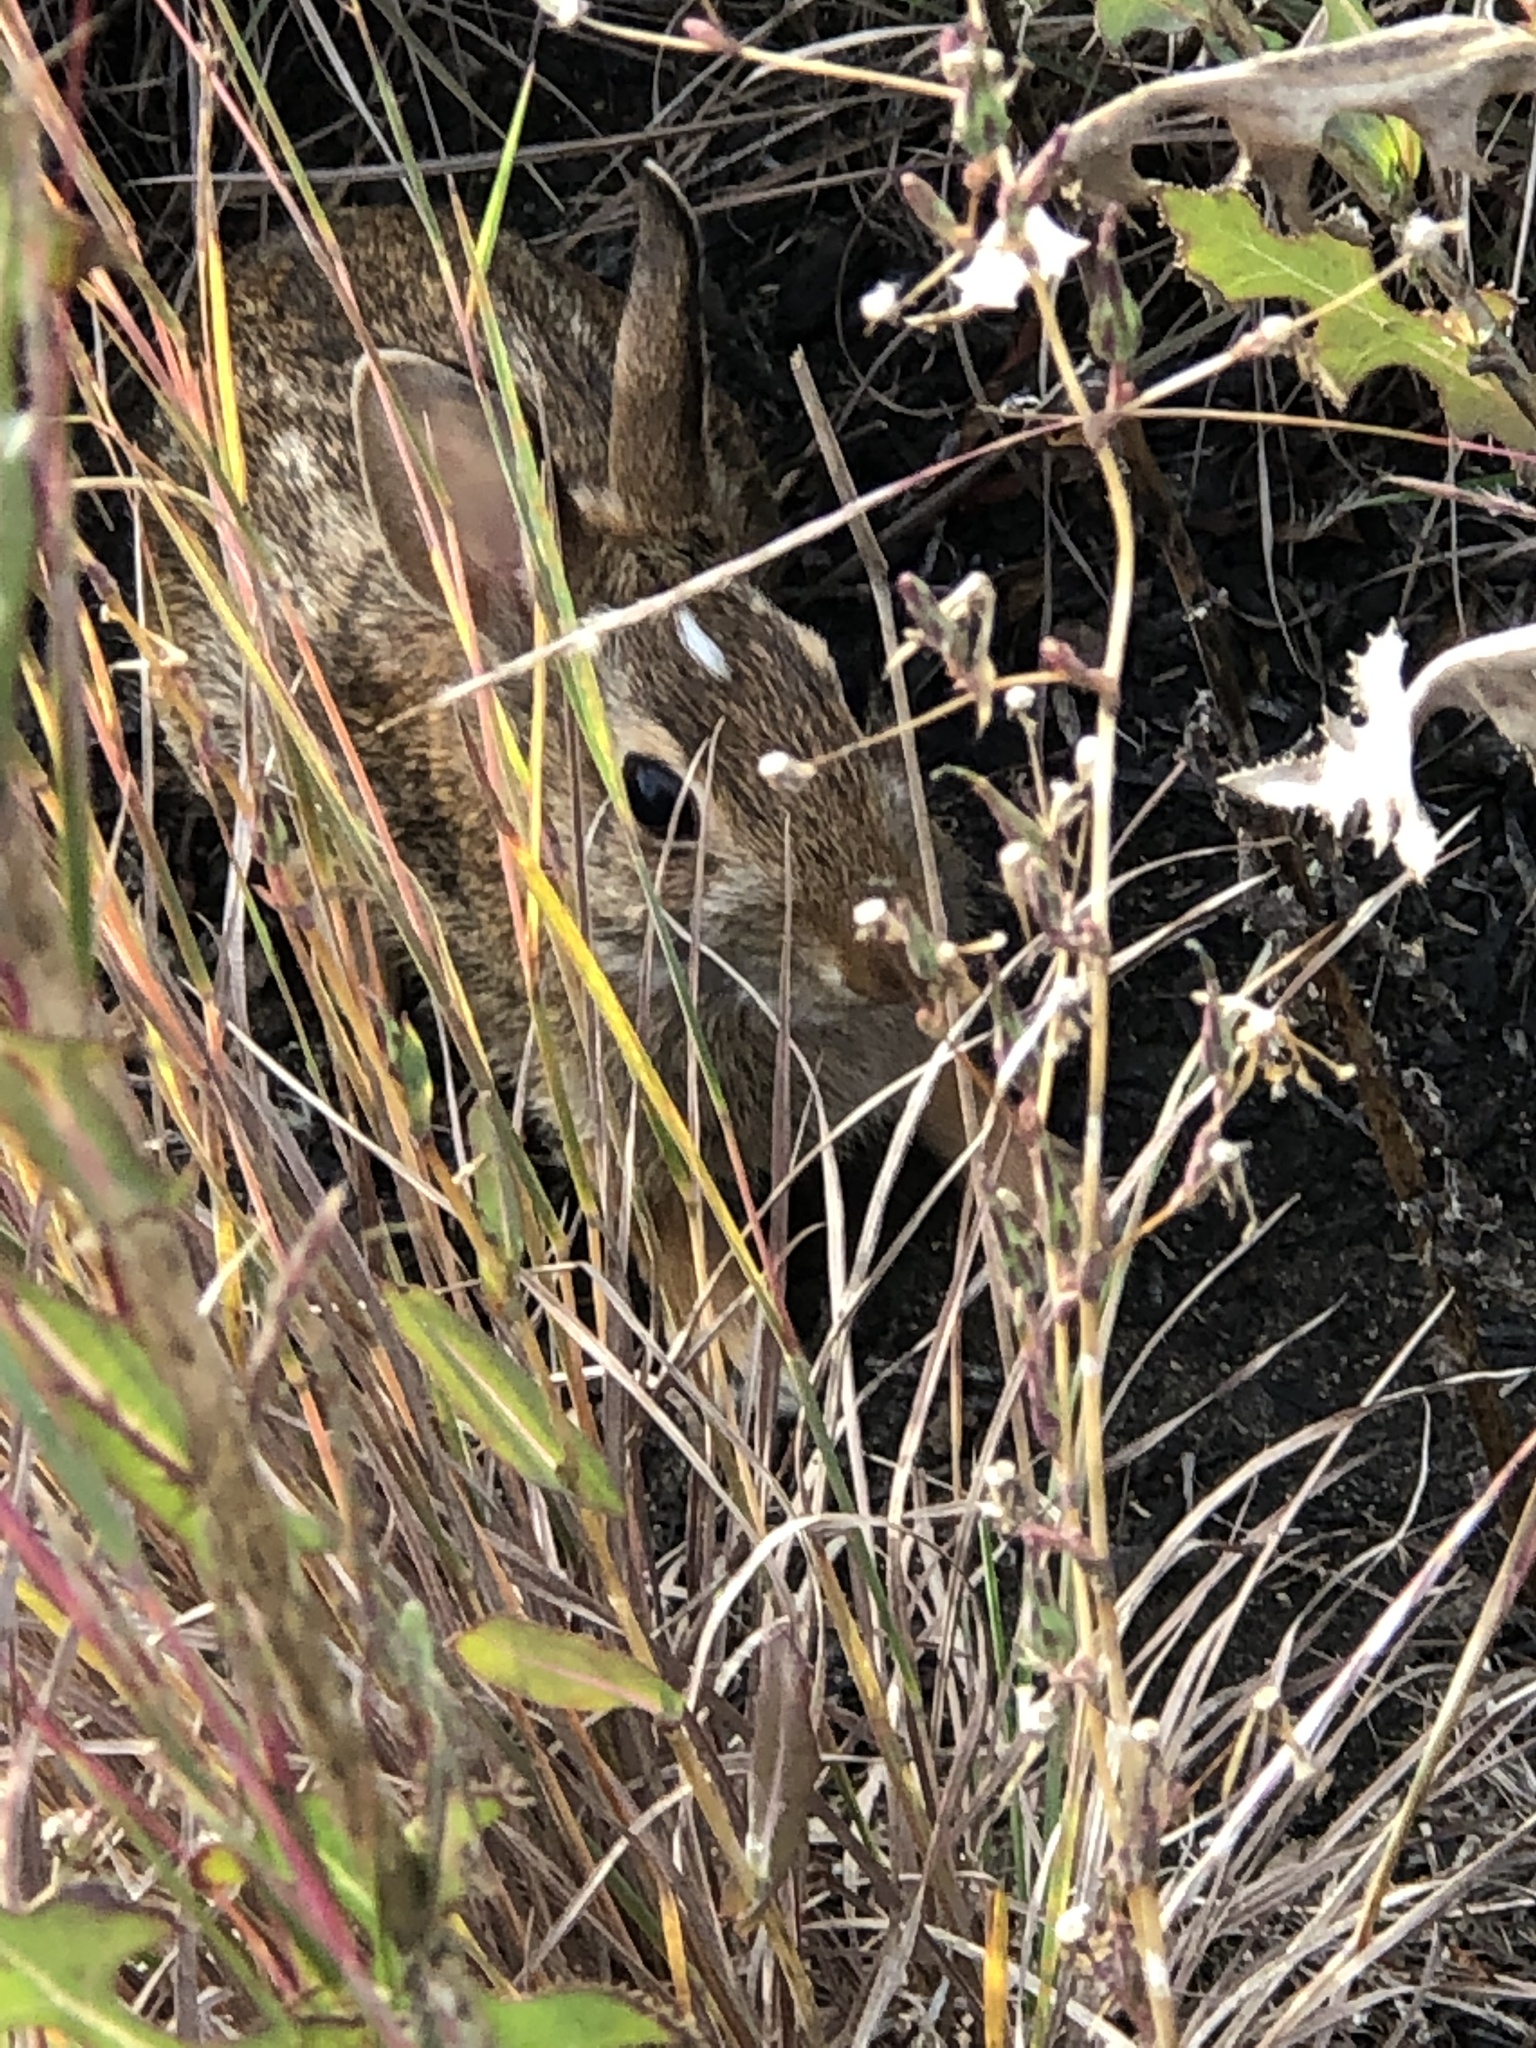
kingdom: Animalia
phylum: Chordata
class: Mammalia
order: Lagomorpha
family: Leporidae
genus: Sylvilagus
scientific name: Sylvilagus floridanus
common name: Eastern cottontail
